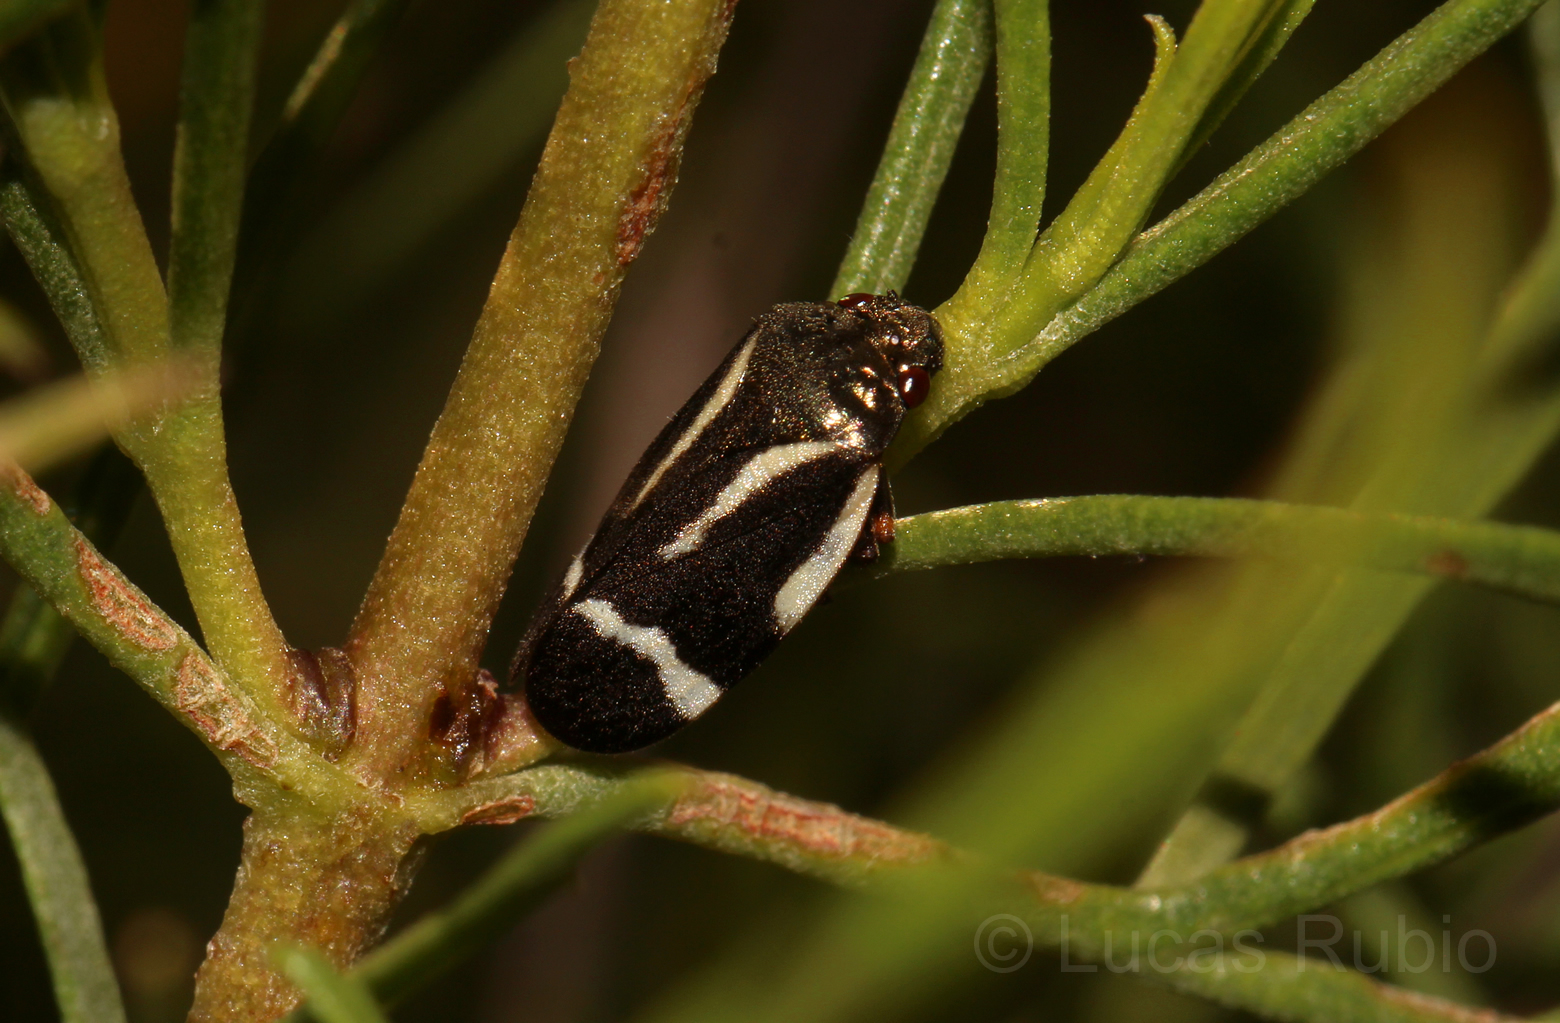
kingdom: Animalia
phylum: Arthropoda
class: Insecta
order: Hemiptera
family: Cercopidae
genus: Notozulia
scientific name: Notozulia entreriana
